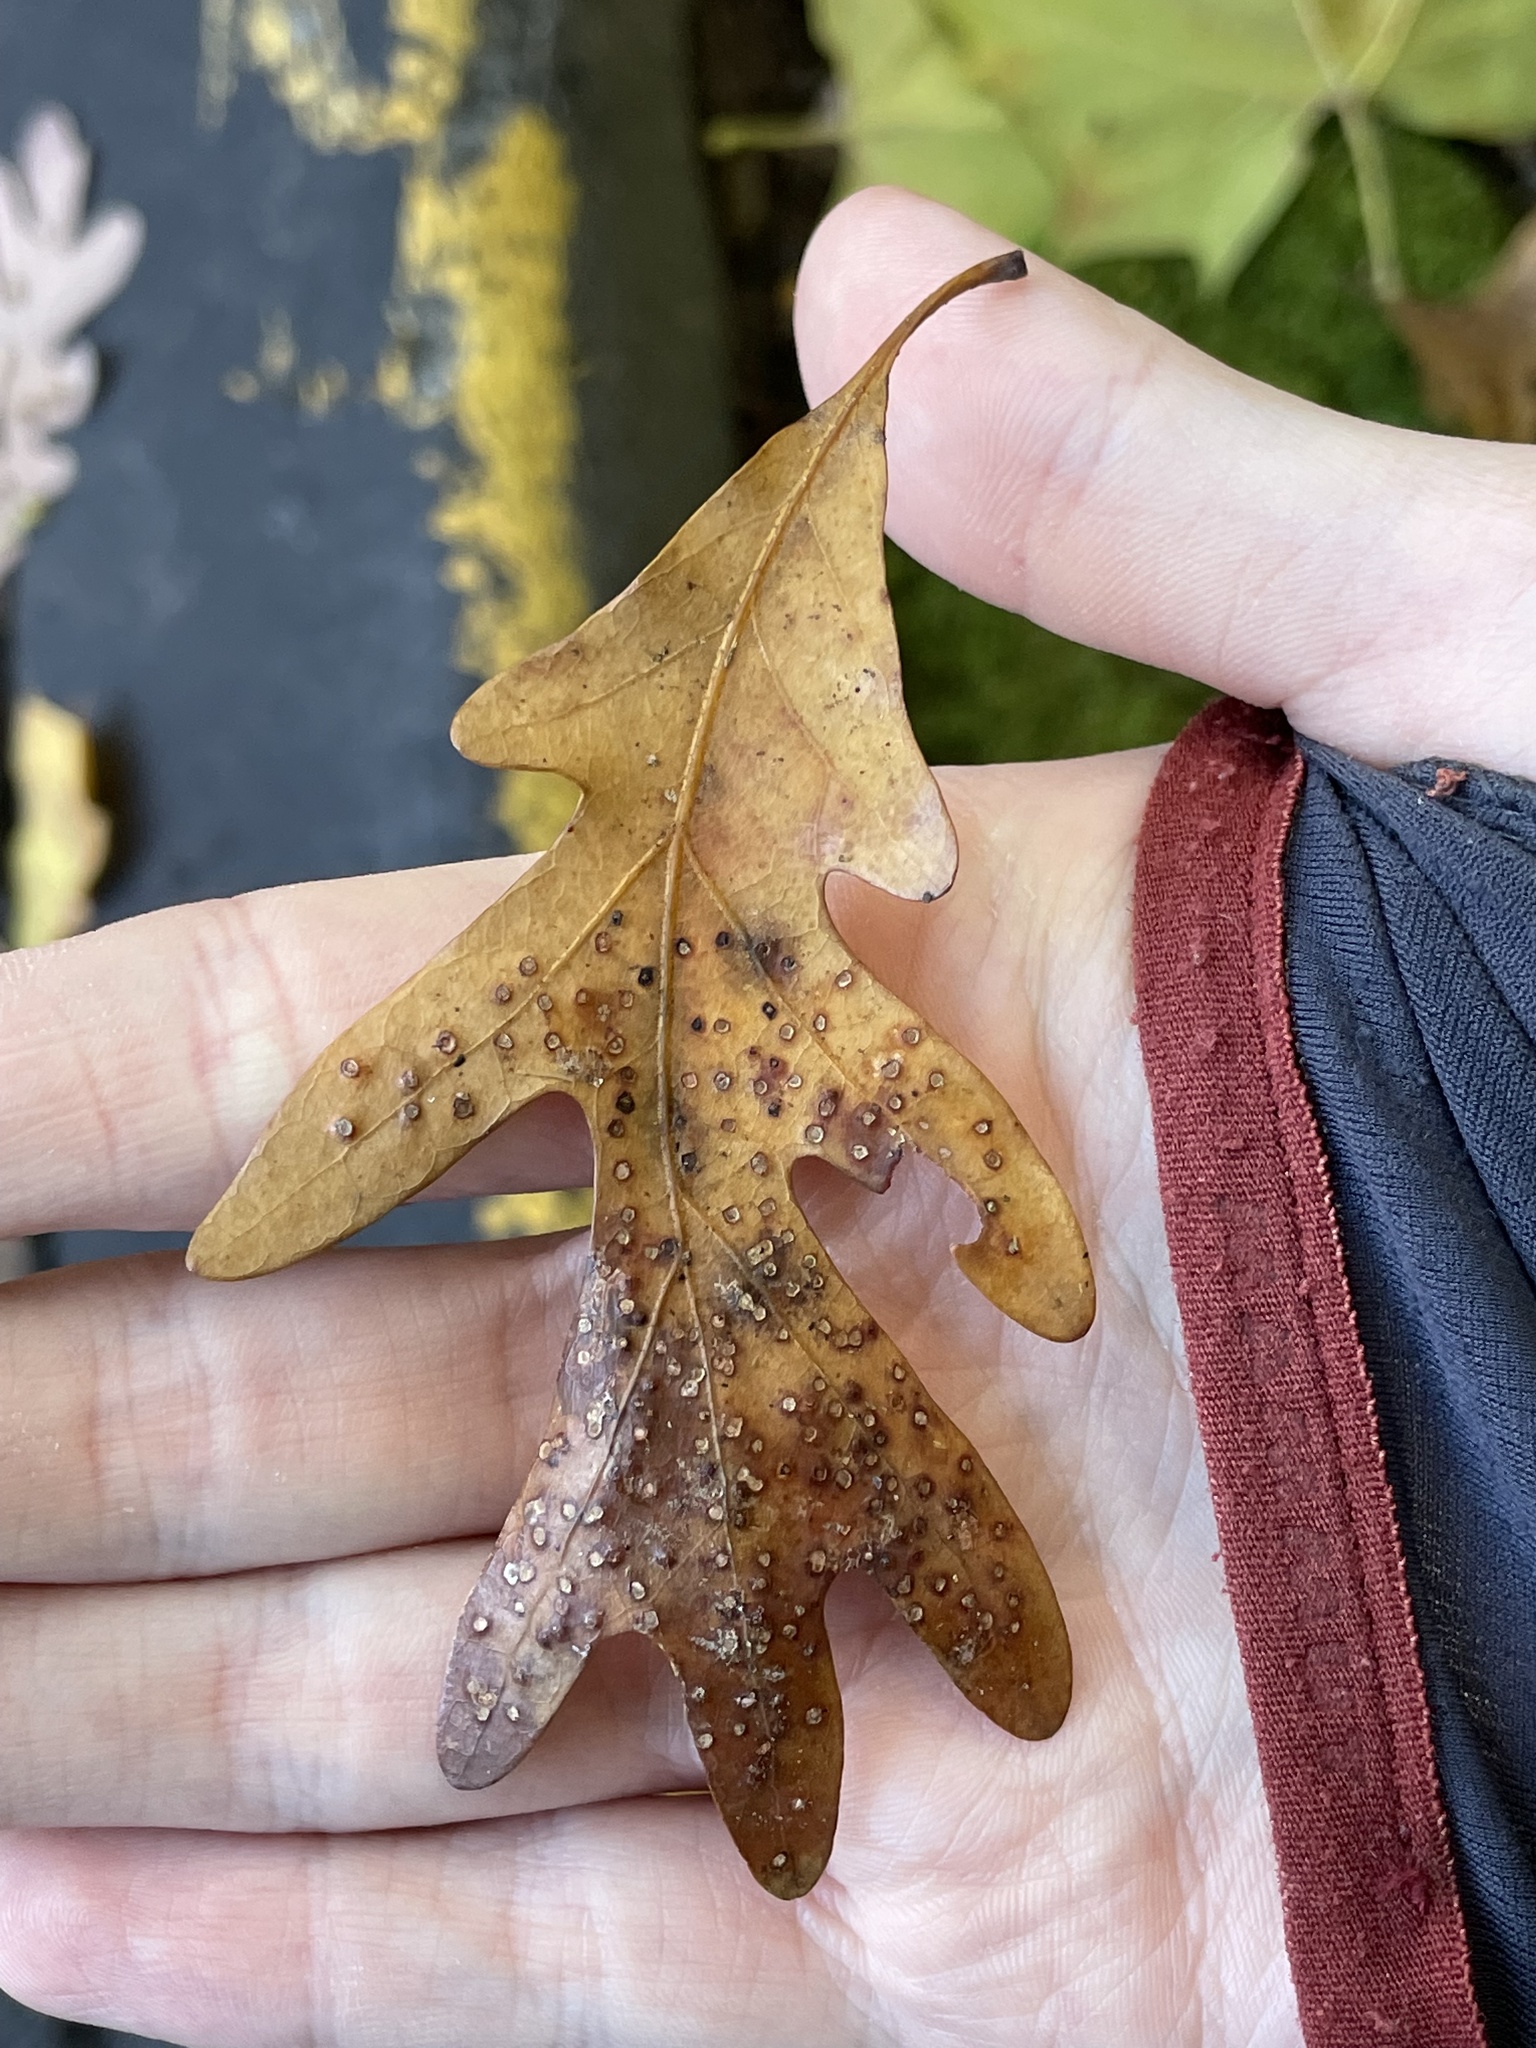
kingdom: Plantae
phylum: Tracheophyta
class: Magnoliopsida
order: Fagales
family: Fagaceae
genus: Quercus
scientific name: Quercus alba
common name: White oak
